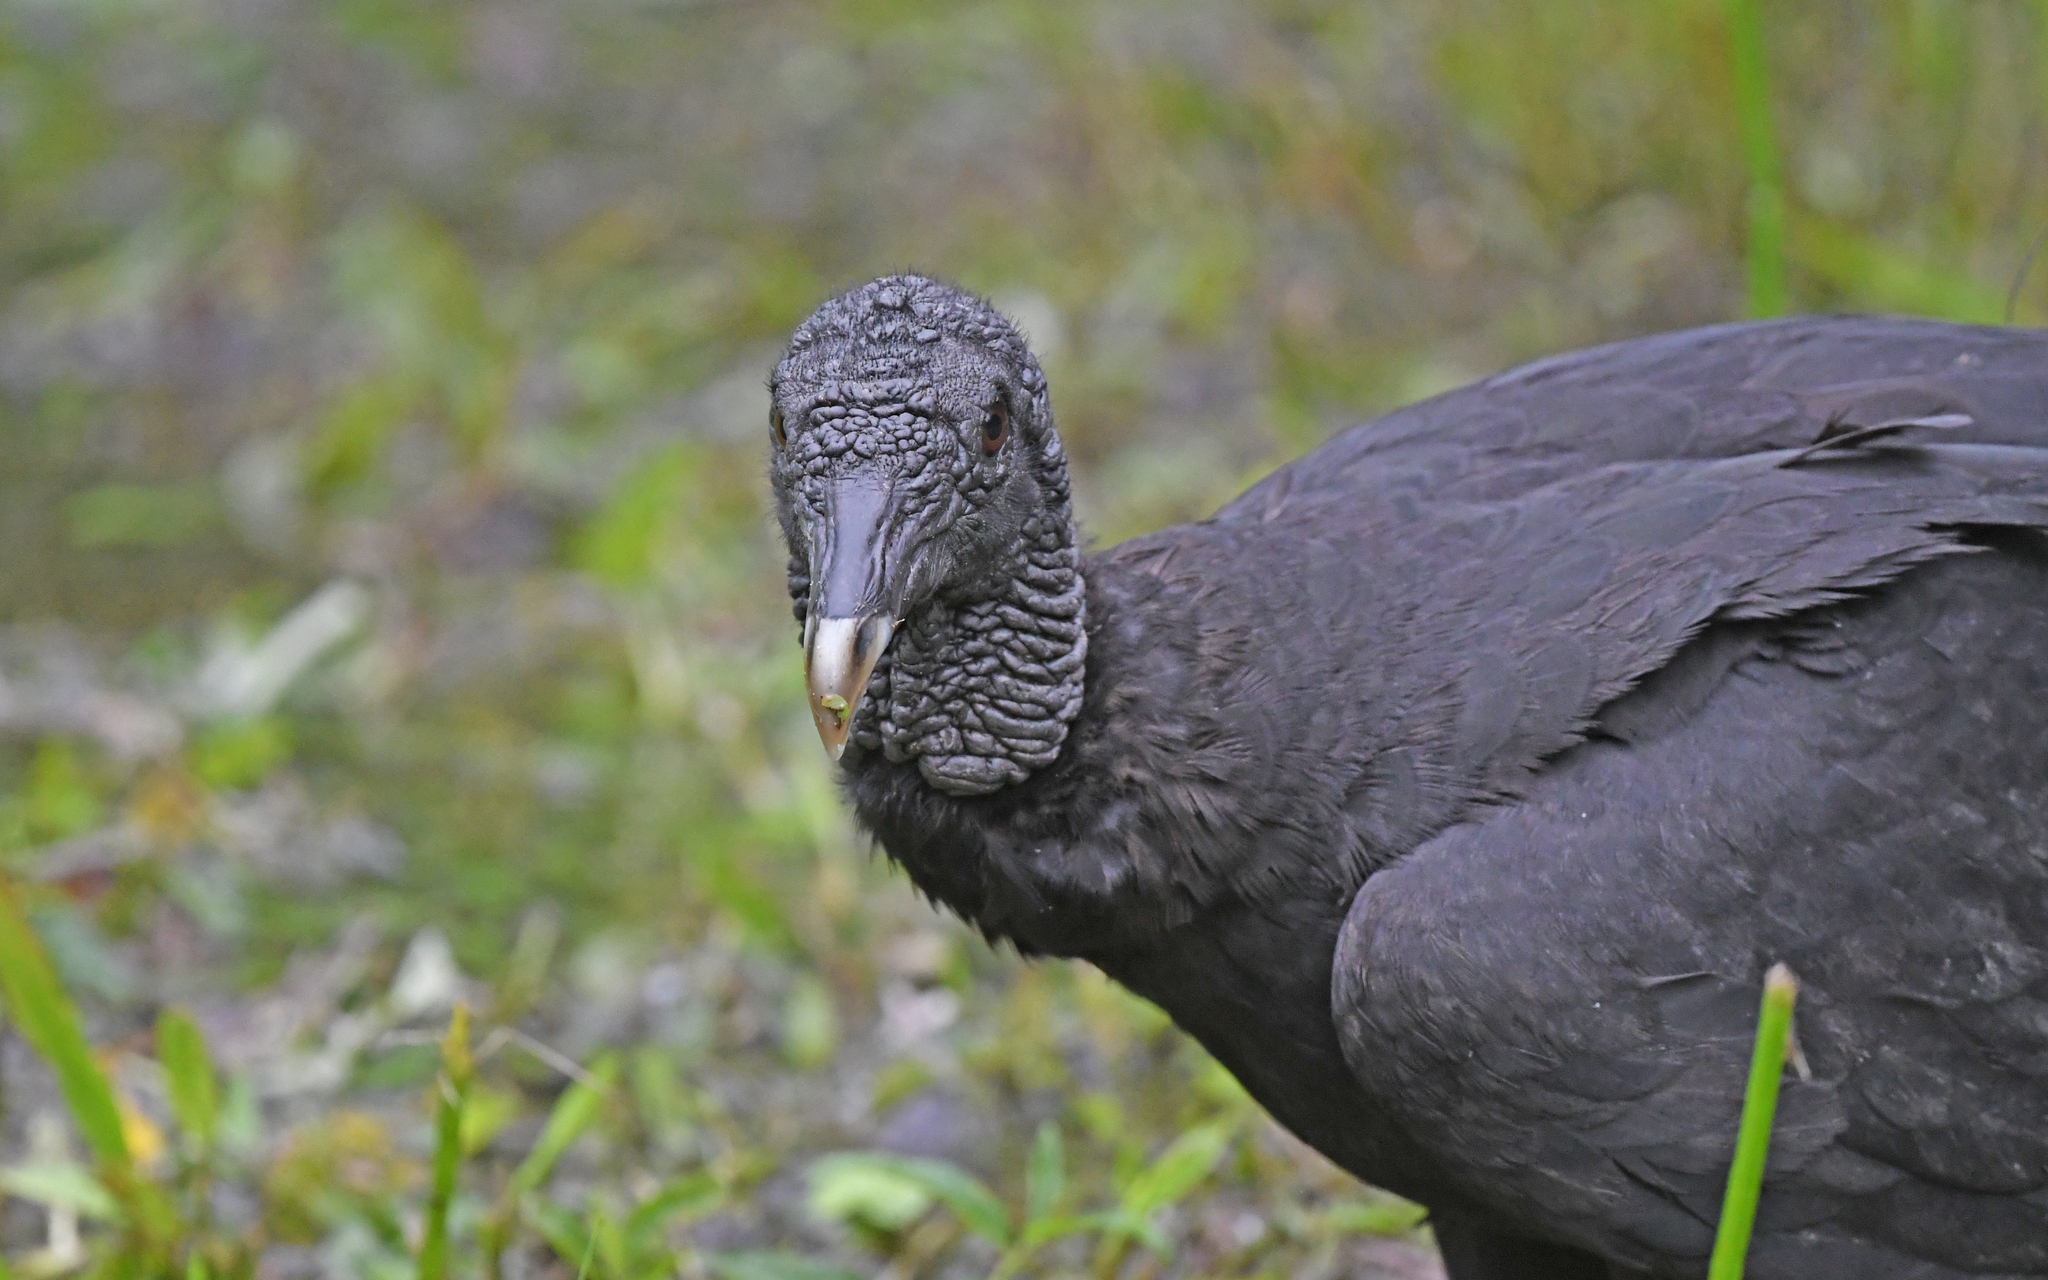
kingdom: Animalia
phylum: Chordata
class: Aves
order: Accipitriformes
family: Cathartidae
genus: Coragyps
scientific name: Coragyps atratus
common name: Black vulture
